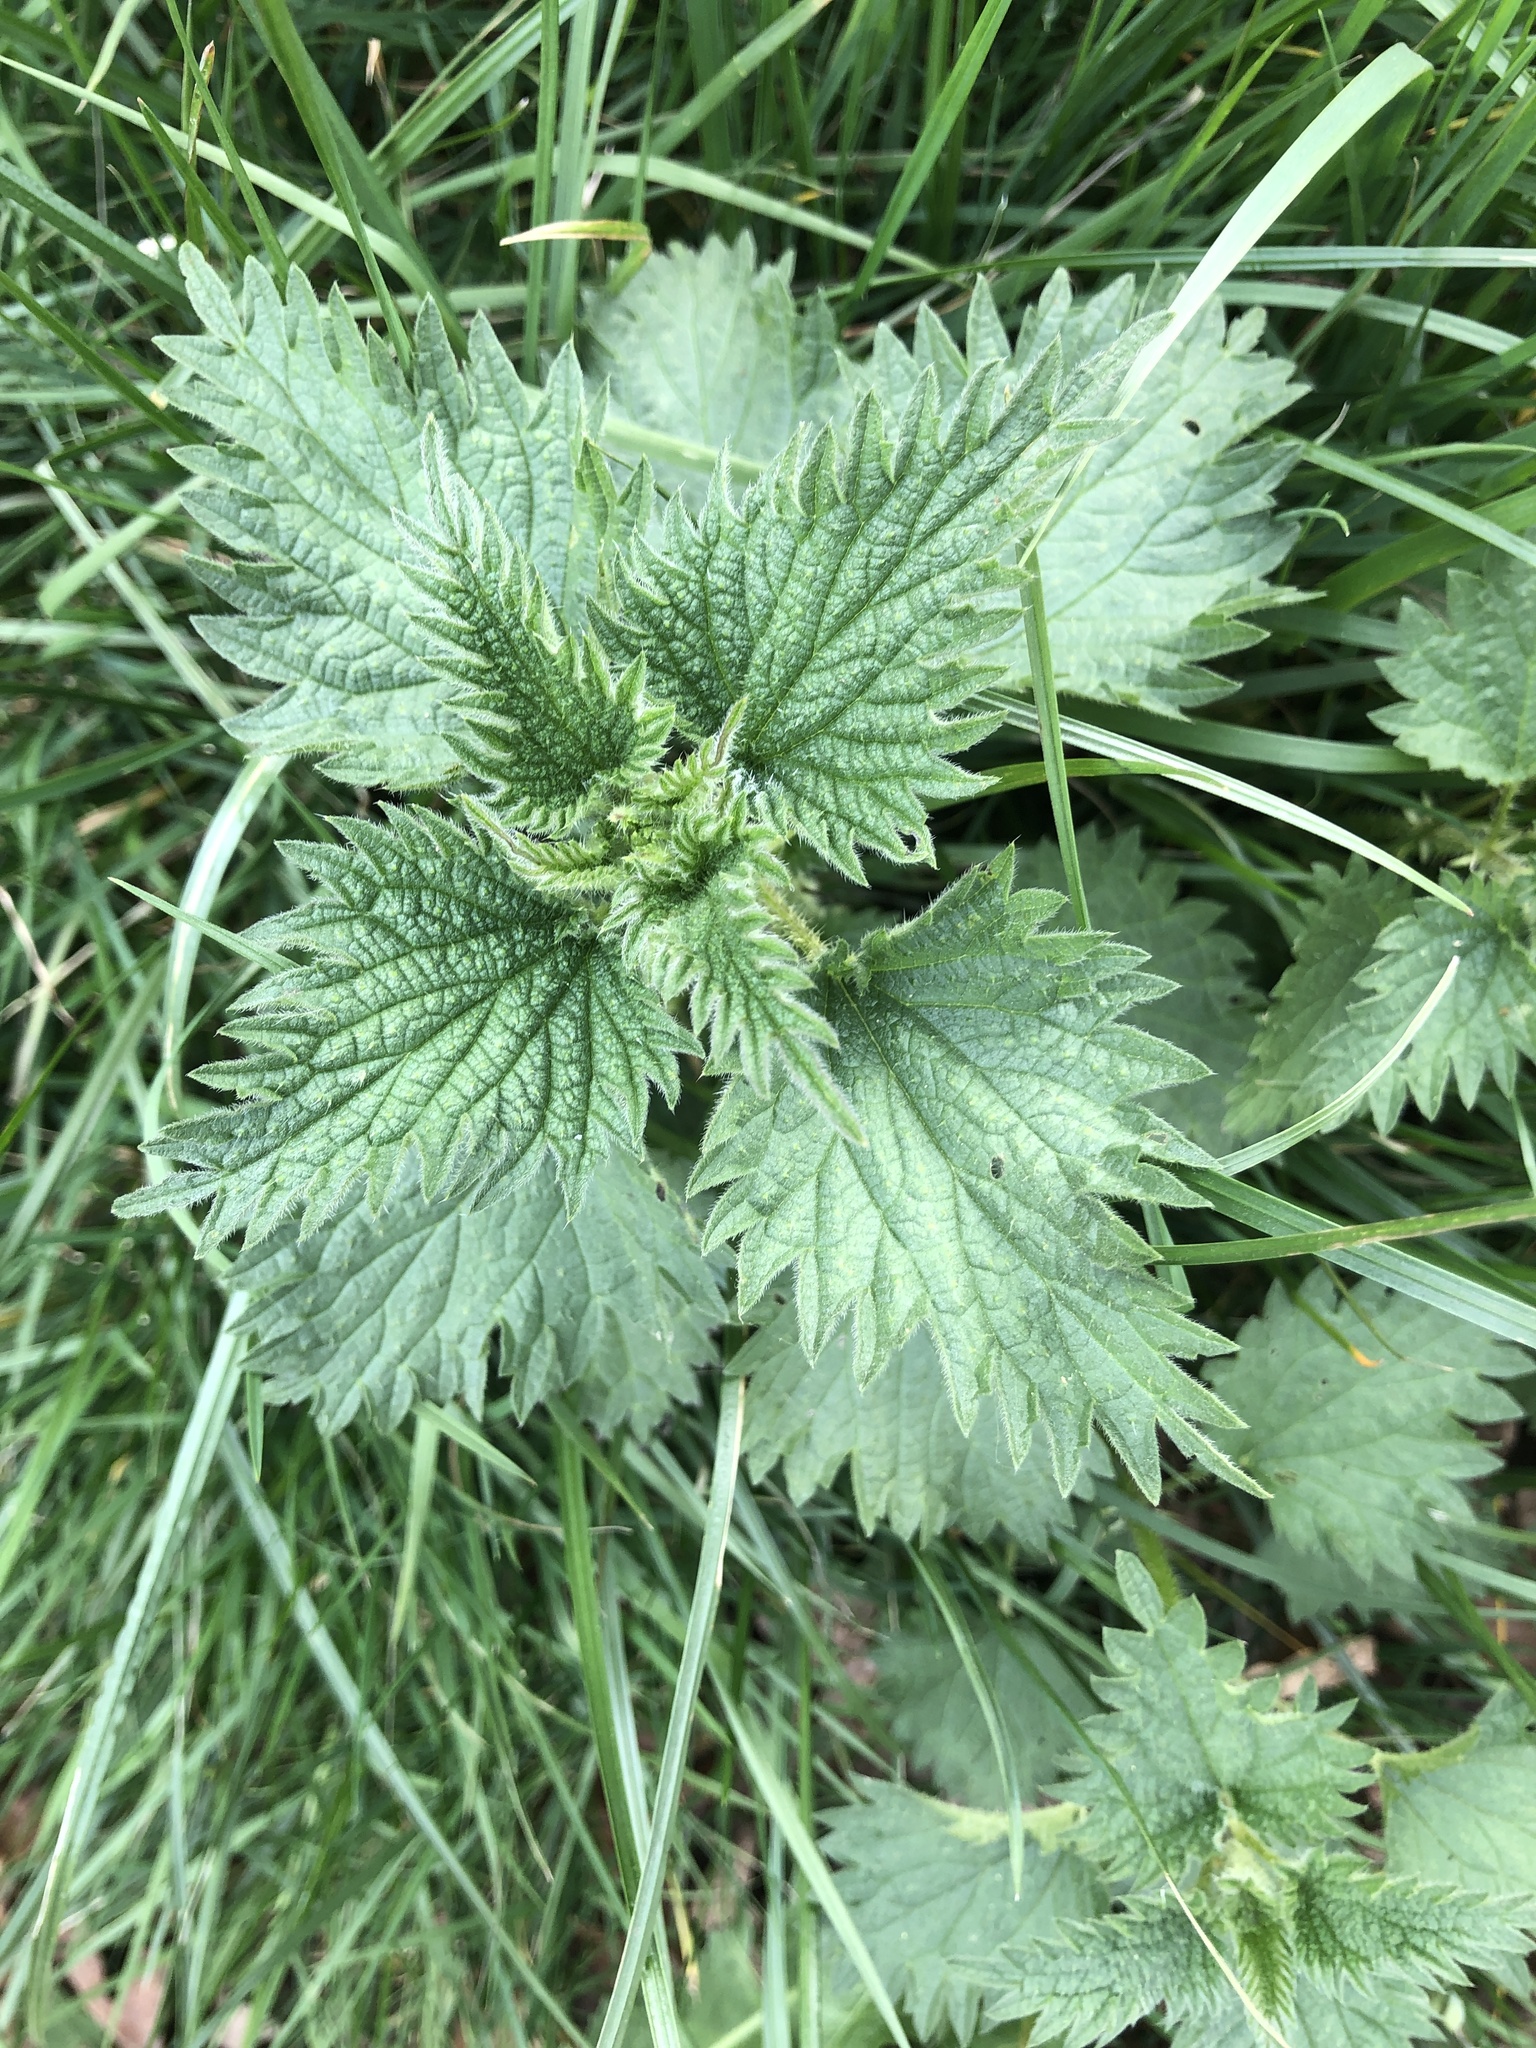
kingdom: Plantae
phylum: Tracheophyta
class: Magnoliopsida
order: Rosales
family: Urticaceae
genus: Urtica
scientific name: Urtica dioica
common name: Common nettle
